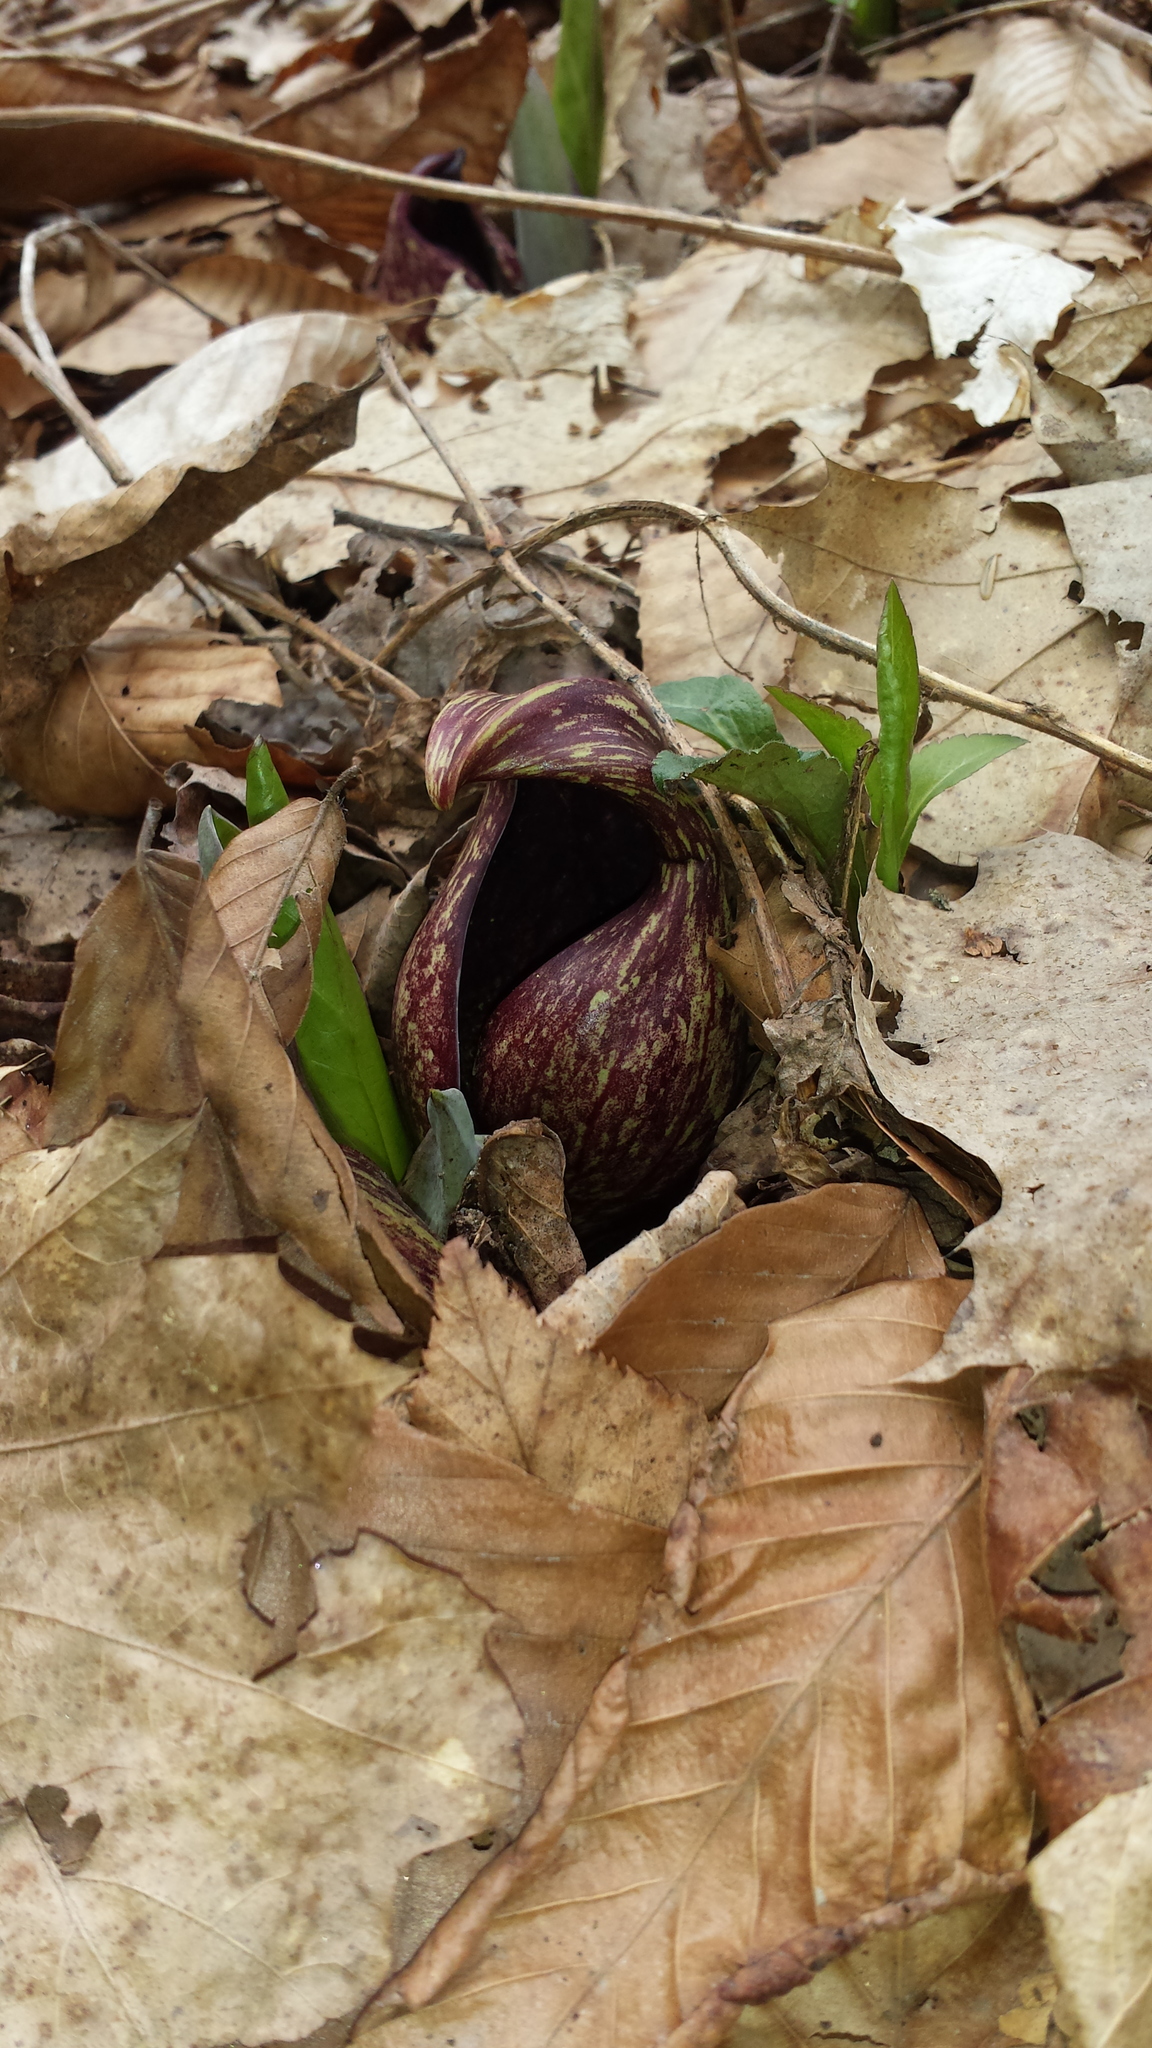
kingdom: Plantae
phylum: Tracheophyta
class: Liliopsida
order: Alismatales
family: Araceae
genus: Symplocarpus
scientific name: Symplocarpus foetidus
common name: Eastern skunk cabbage
